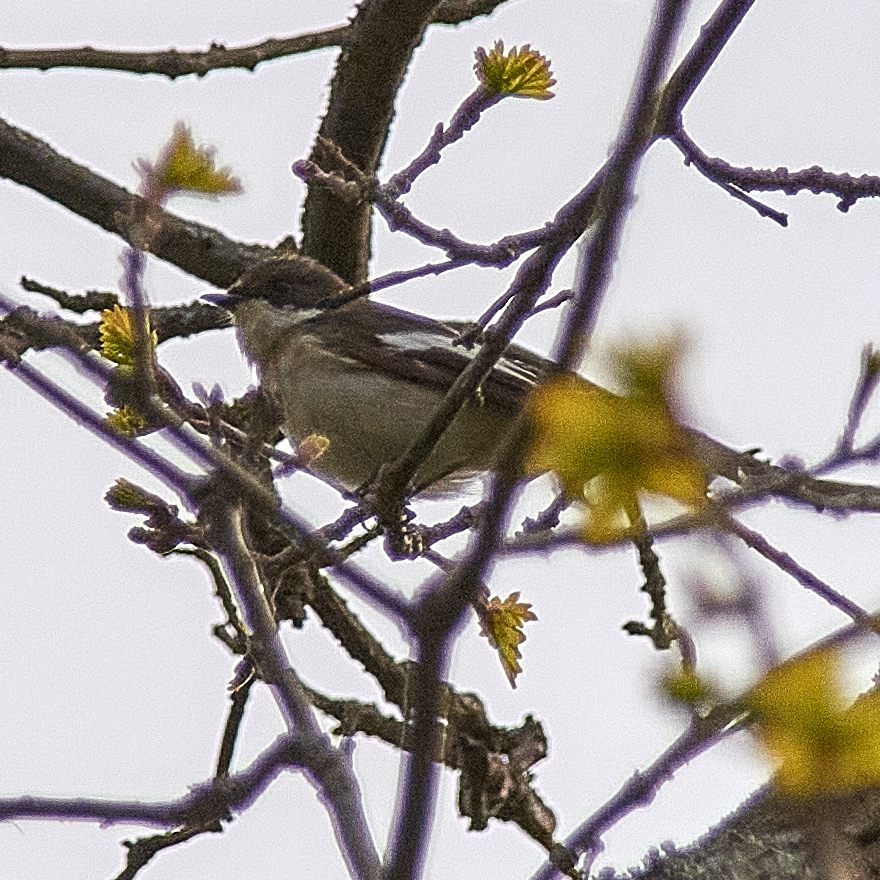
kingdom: Animalia
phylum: Chordata
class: Aves
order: Passeriformes
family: Muscicapidae
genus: Ficedula
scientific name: Ficedula hypoleuca
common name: European pied flycatcher
